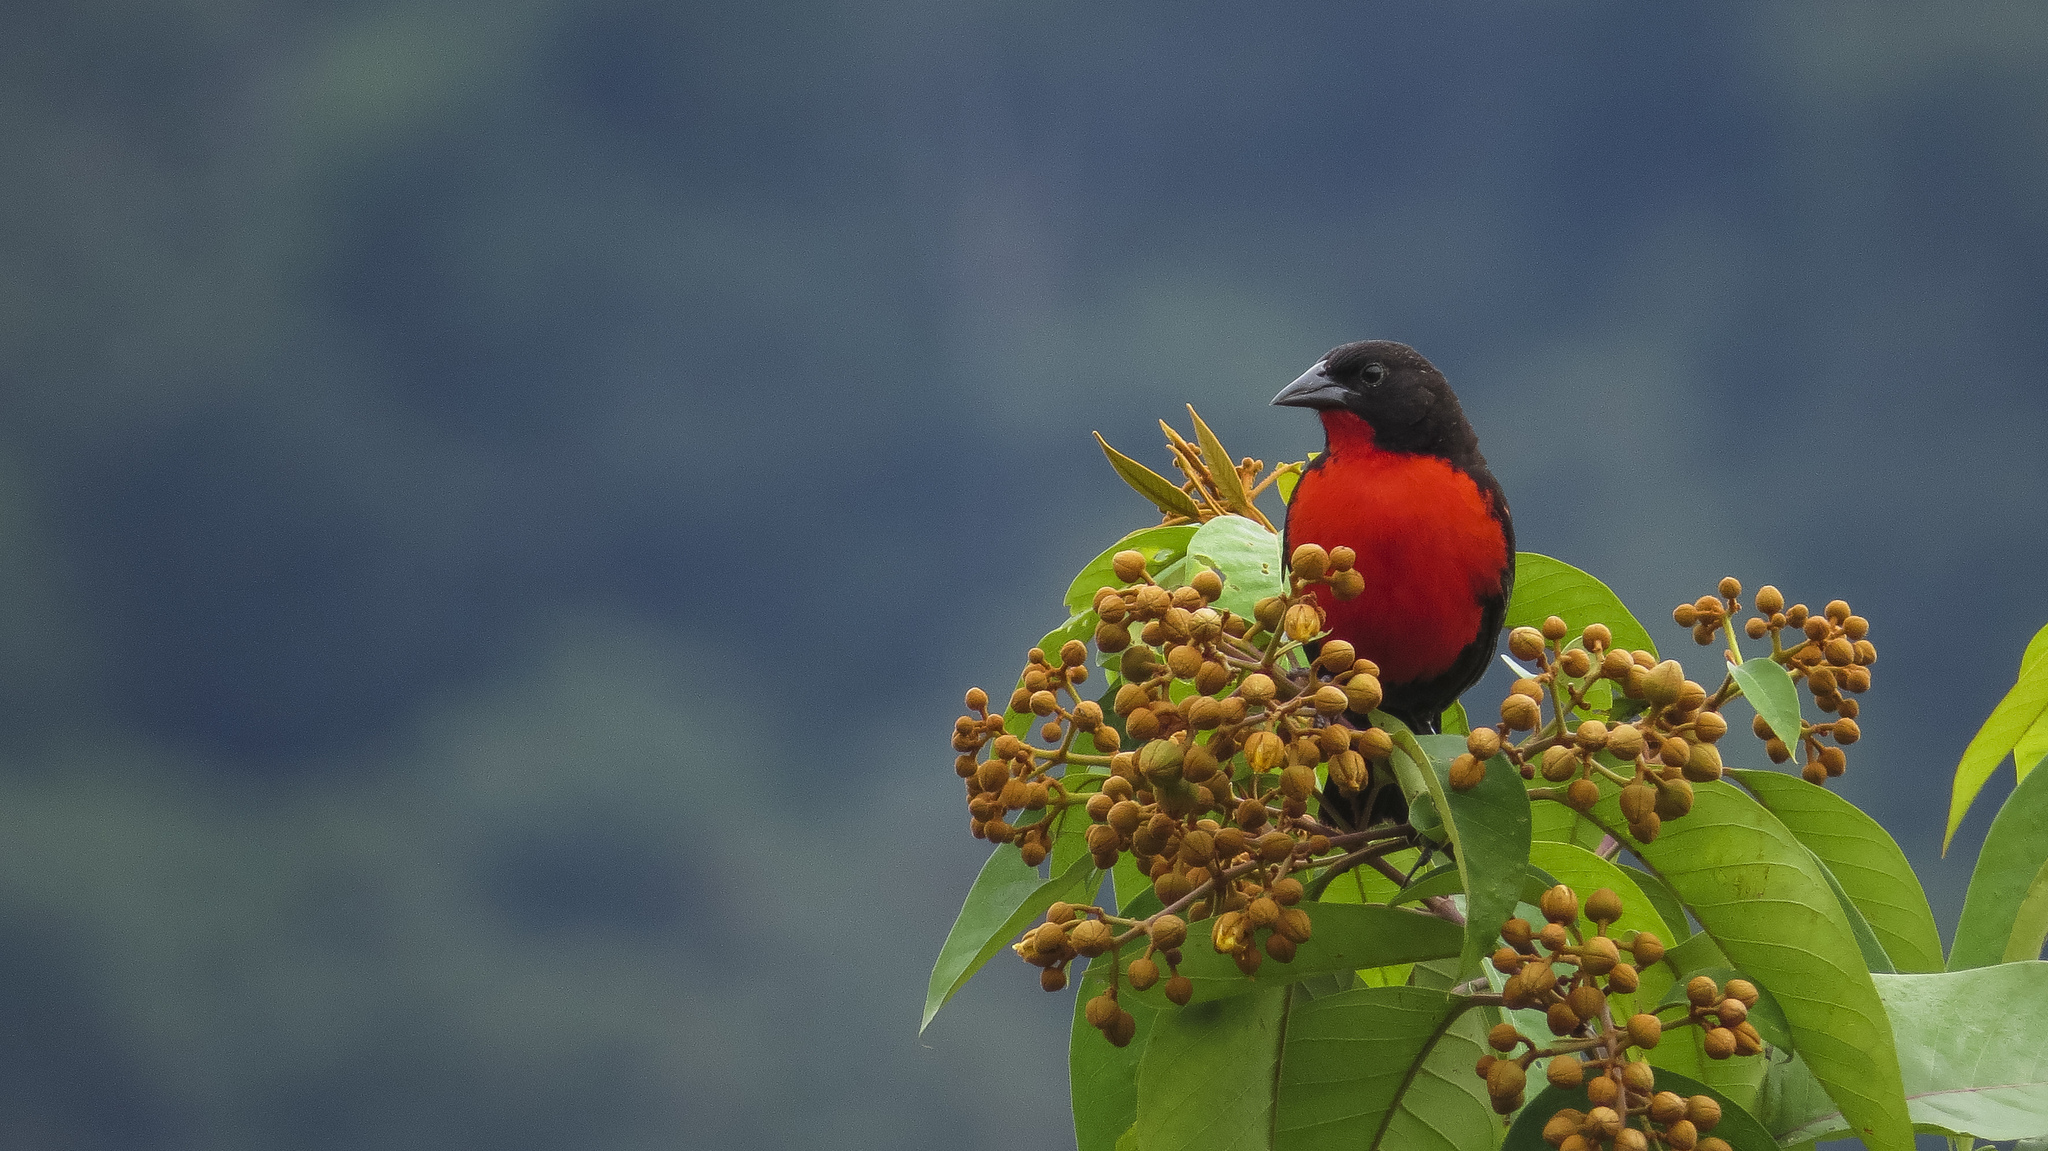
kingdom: Animalia
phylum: Chordata
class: Aves
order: Passeriformes
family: Icteridae
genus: Sturnella
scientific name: Sturnella militaris
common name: Red-breasted blackbird
